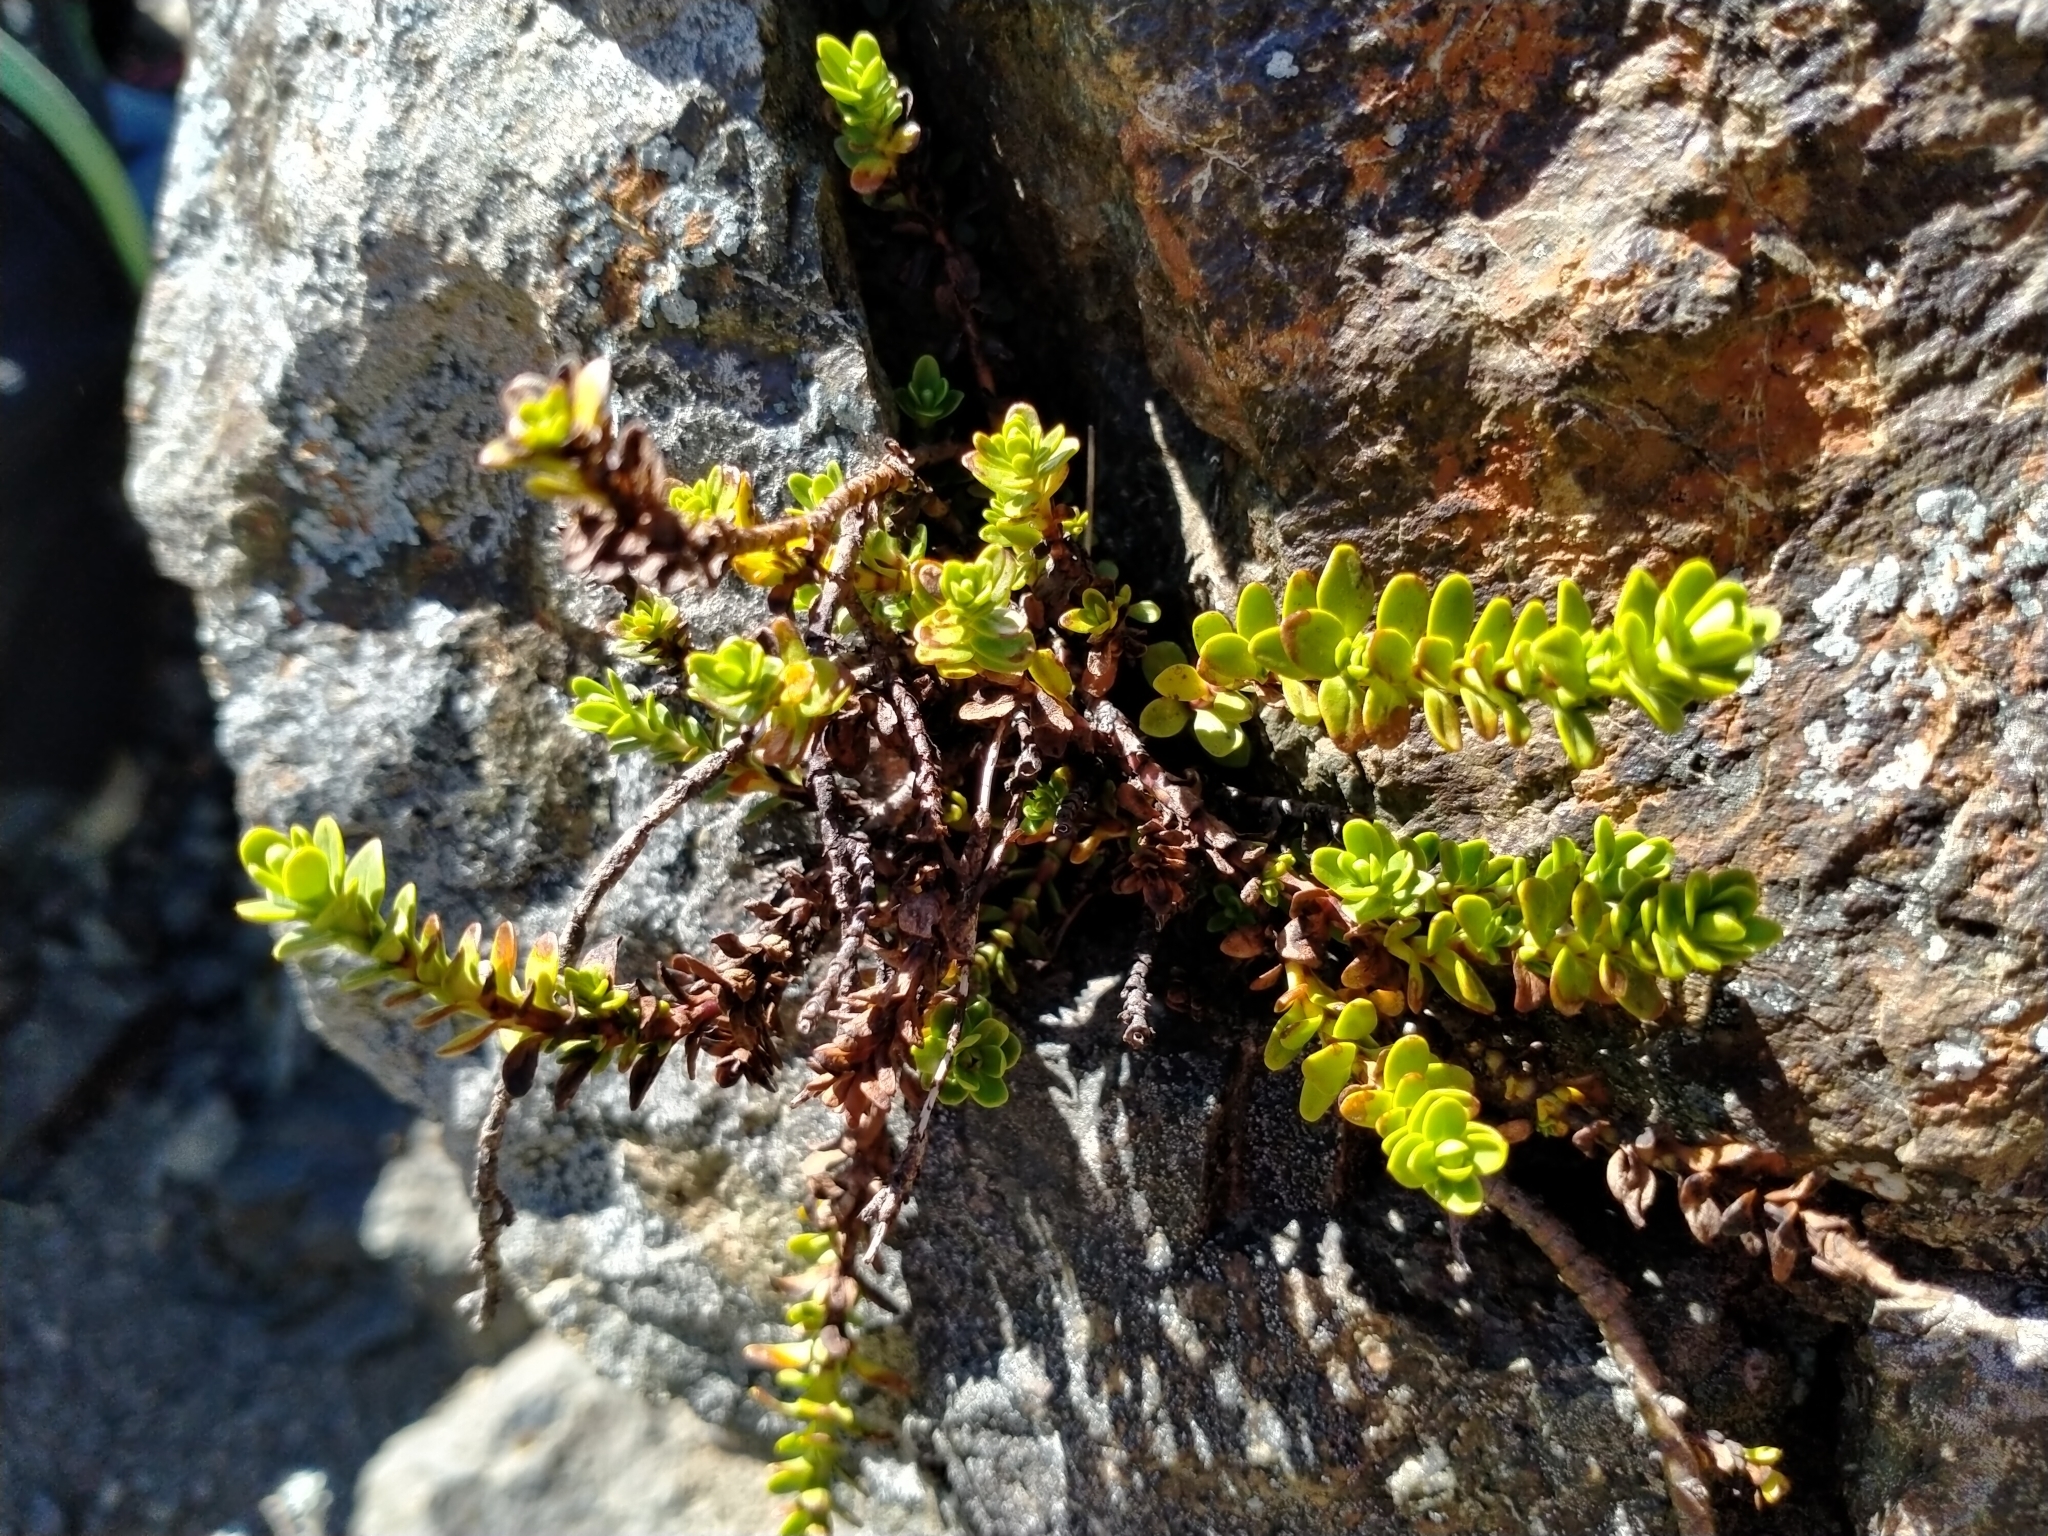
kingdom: Plantae
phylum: Tracheophyta
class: Magnoliopsida
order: Lamiales
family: Plantaginaceae
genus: Veronica
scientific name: Veronica petriei
